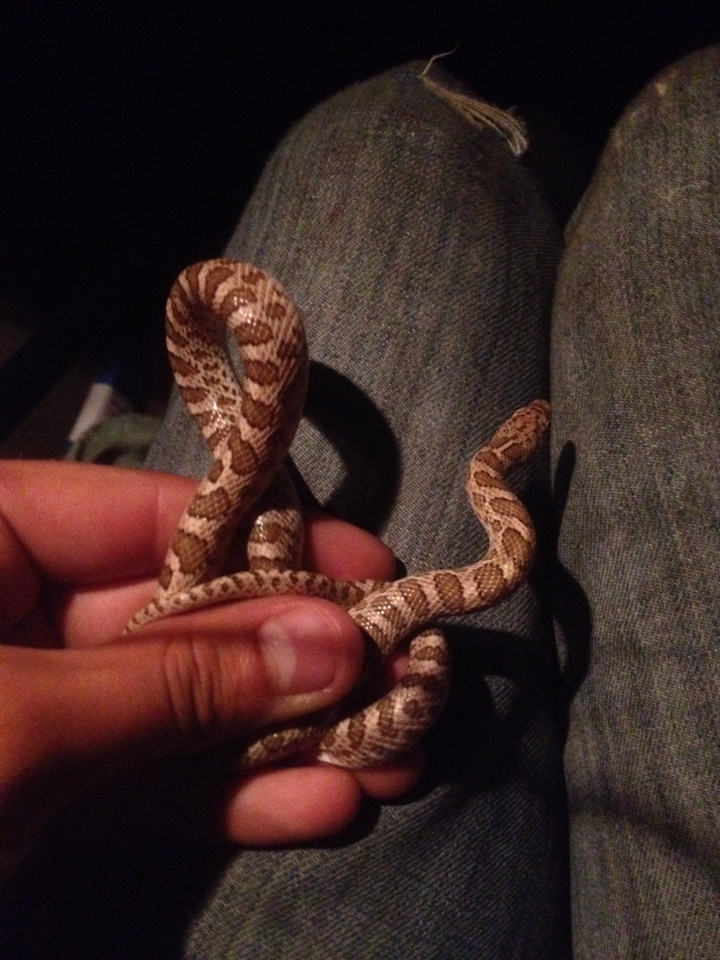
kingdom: Animalia
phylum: Chordata
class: Squamata
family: Colubridae
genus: Arizona
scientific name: Arizona elegans
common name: Glossy snake
